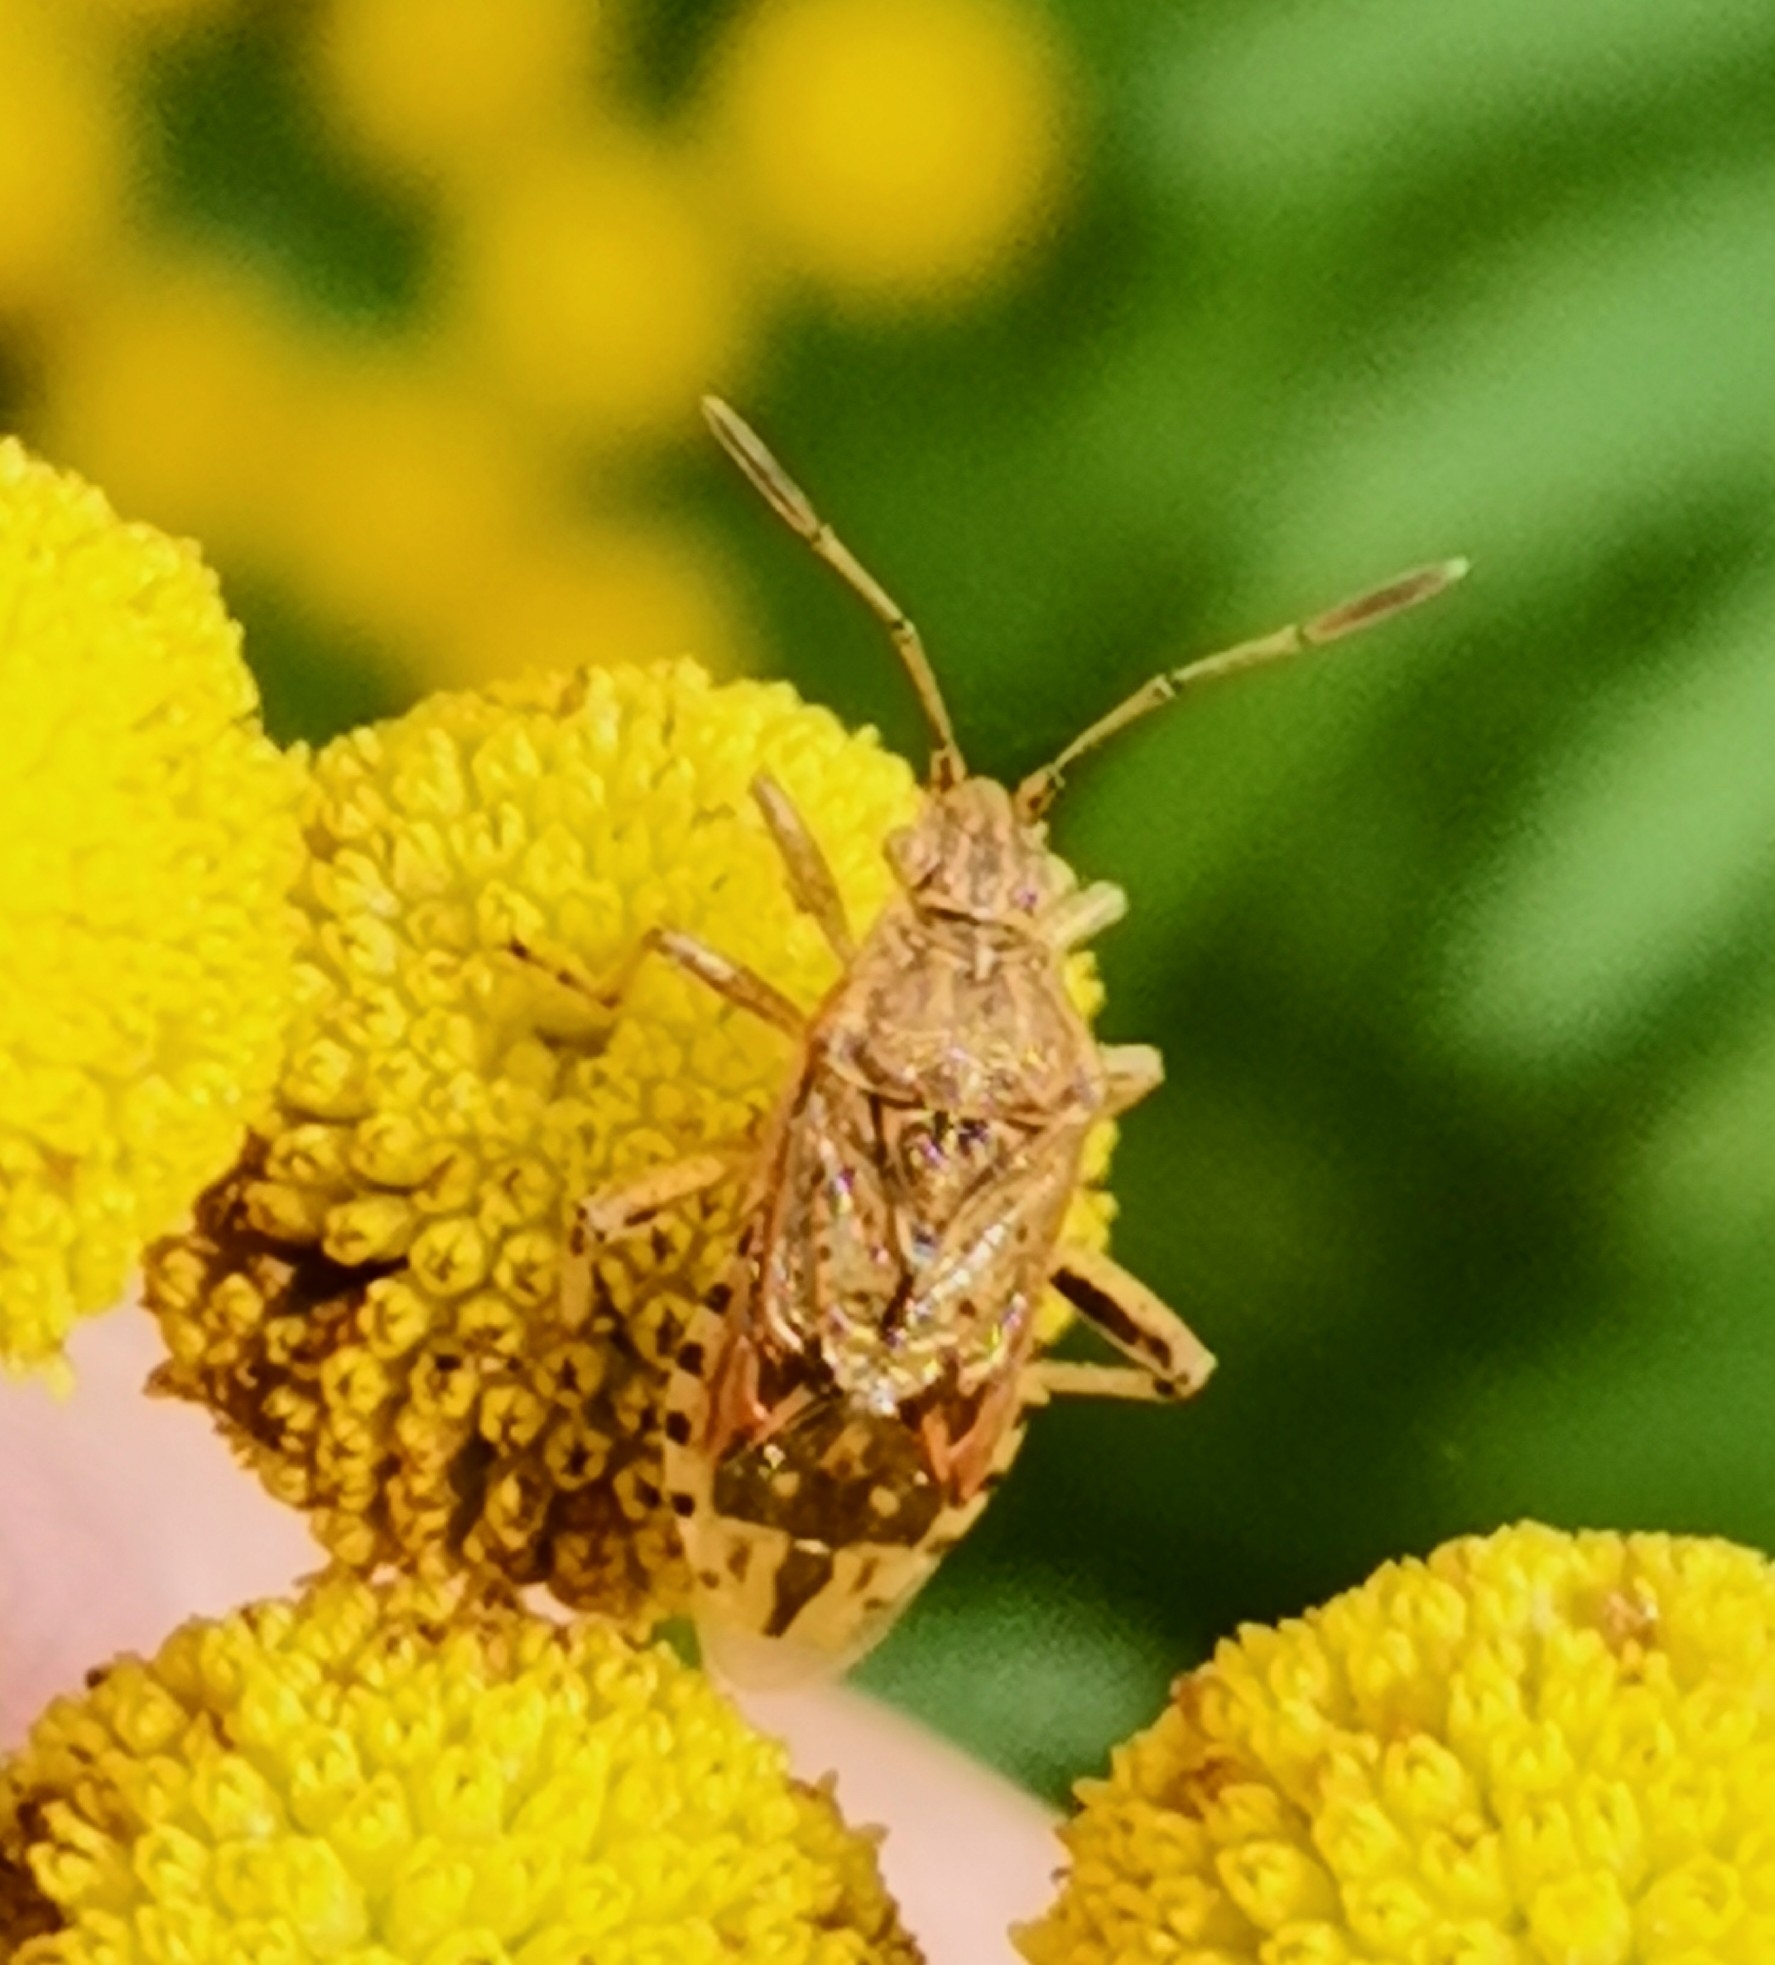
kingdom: Animalia
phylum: Arthropoda
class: Insecta
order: Hemiptera
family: Rhopalidae
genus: Stictopleurus
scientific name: Stictopleurus abutilon
